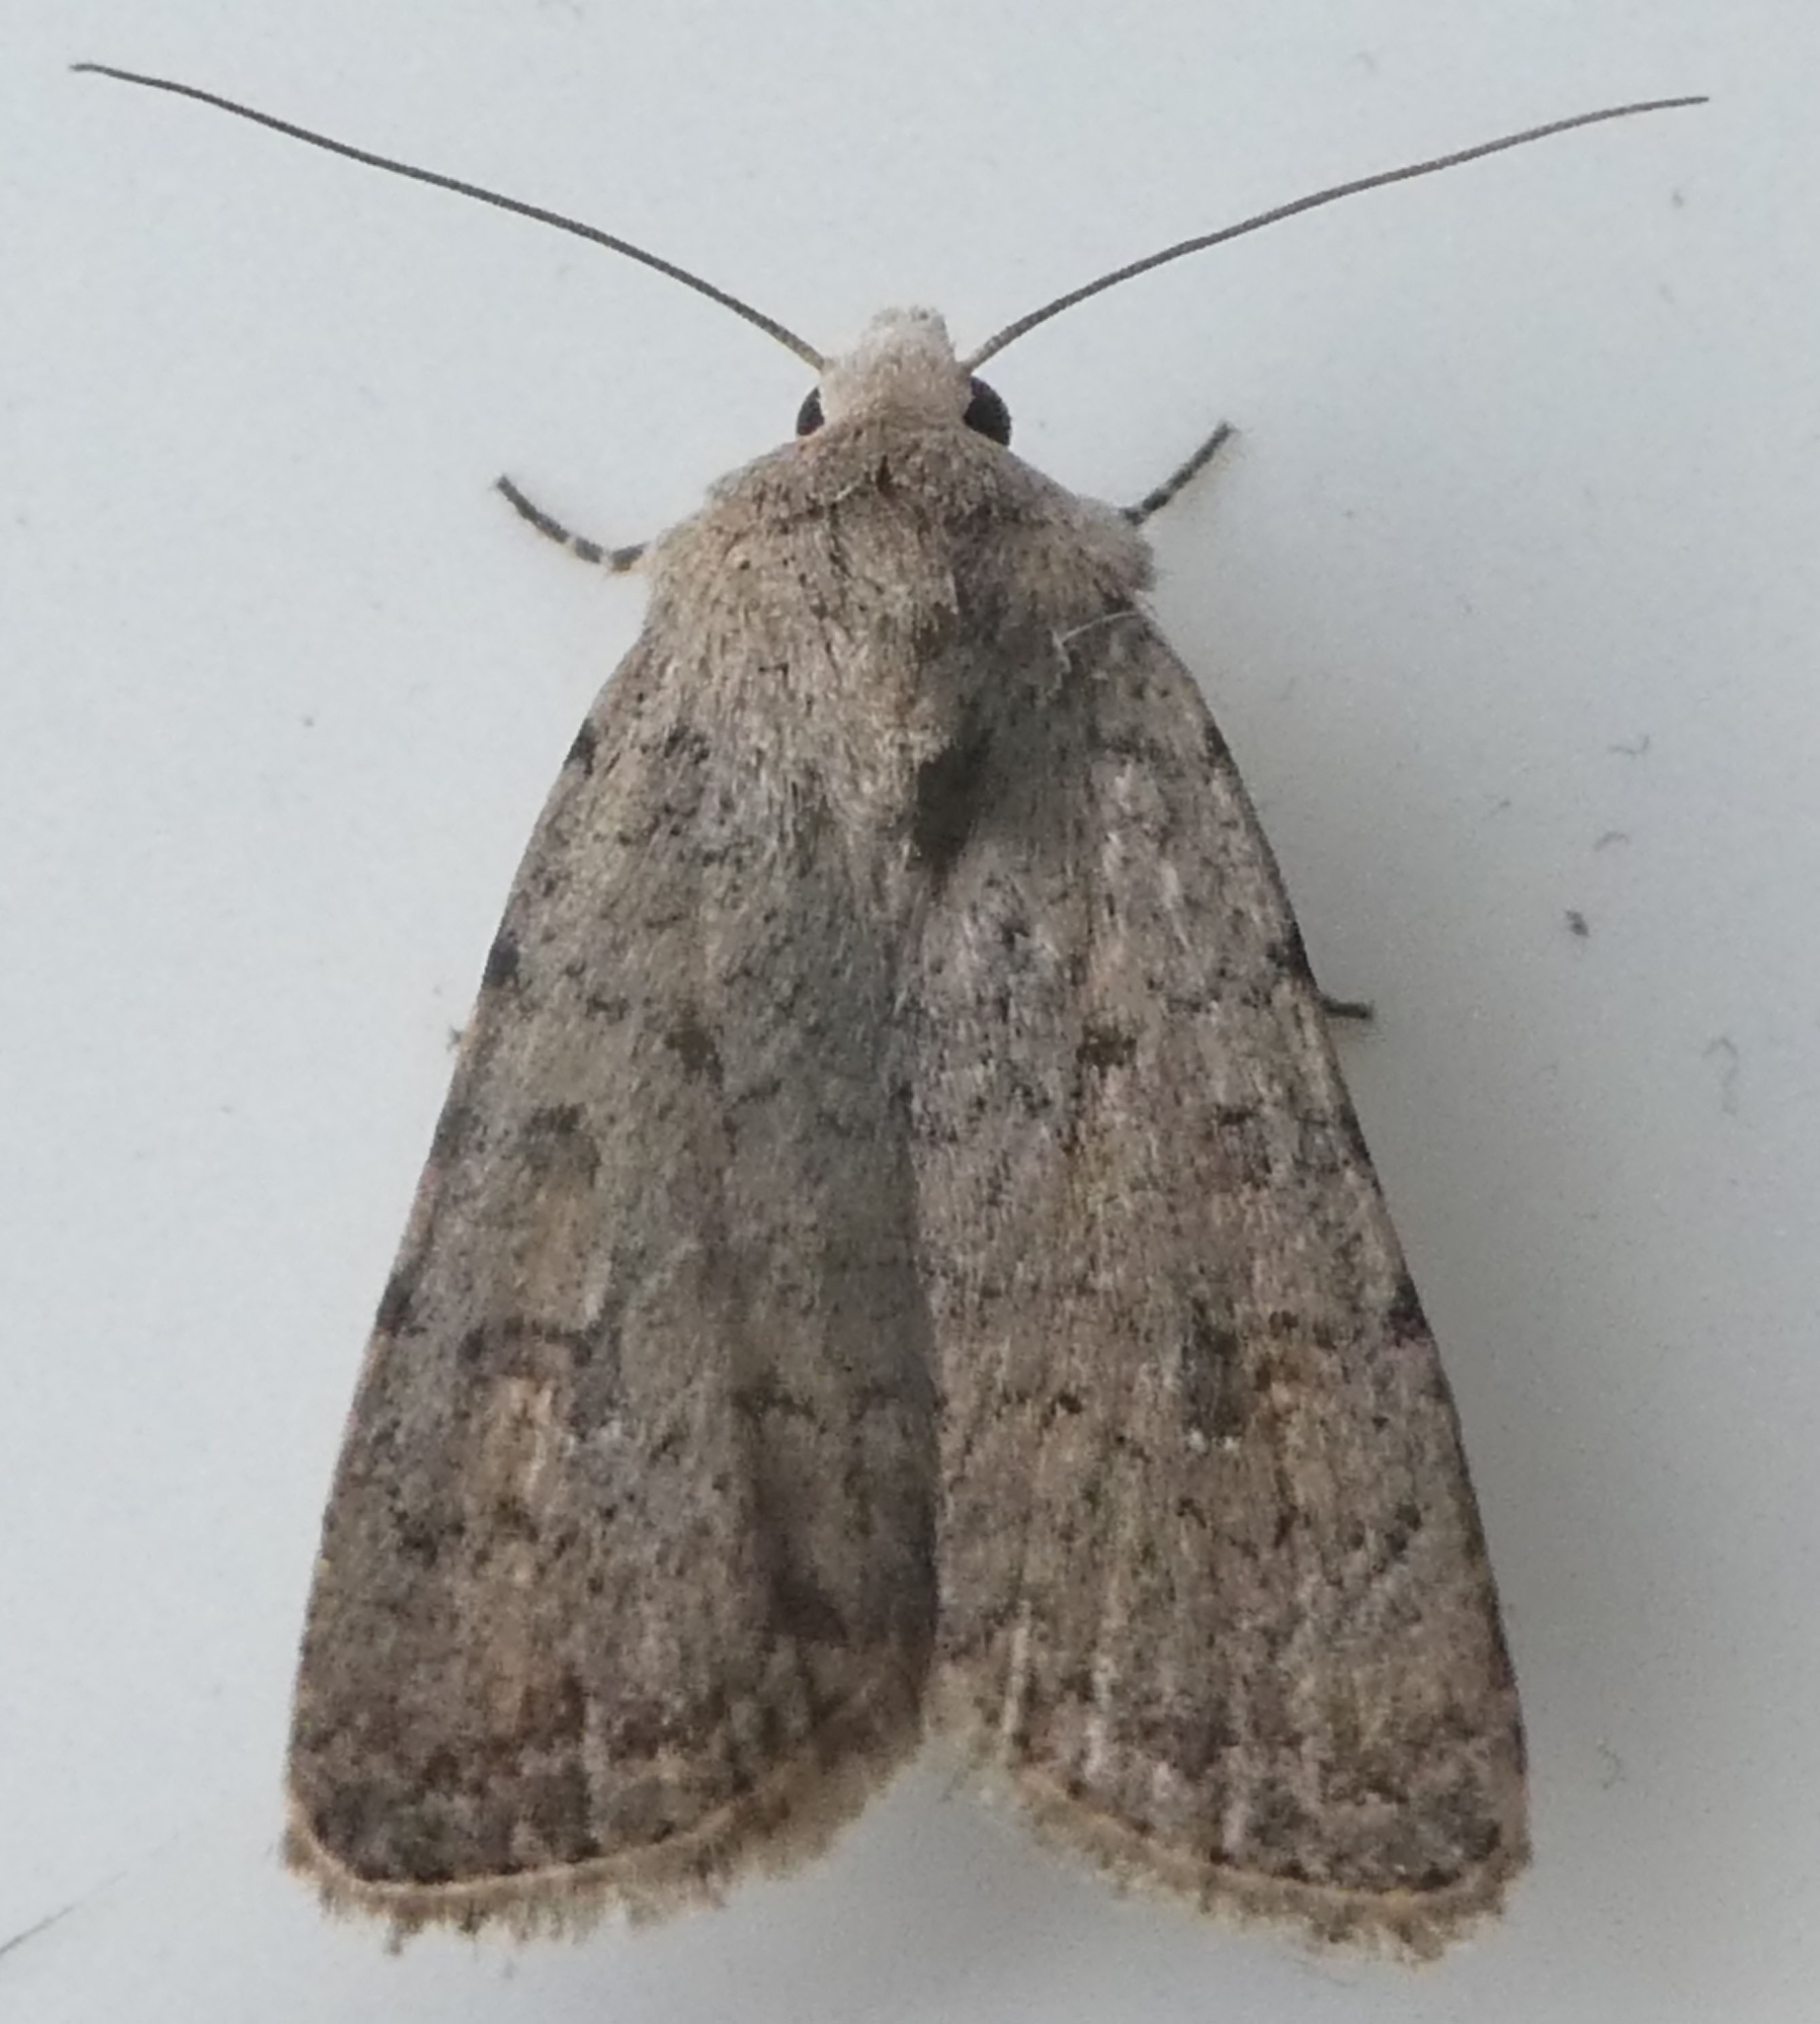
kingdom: Animalia
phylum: Arthropoda
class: Insecta
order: Lepidoptera
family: Noctuidae
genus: Caradrina
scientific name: Caradrina clavipalpis
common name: Pale mottled willow
